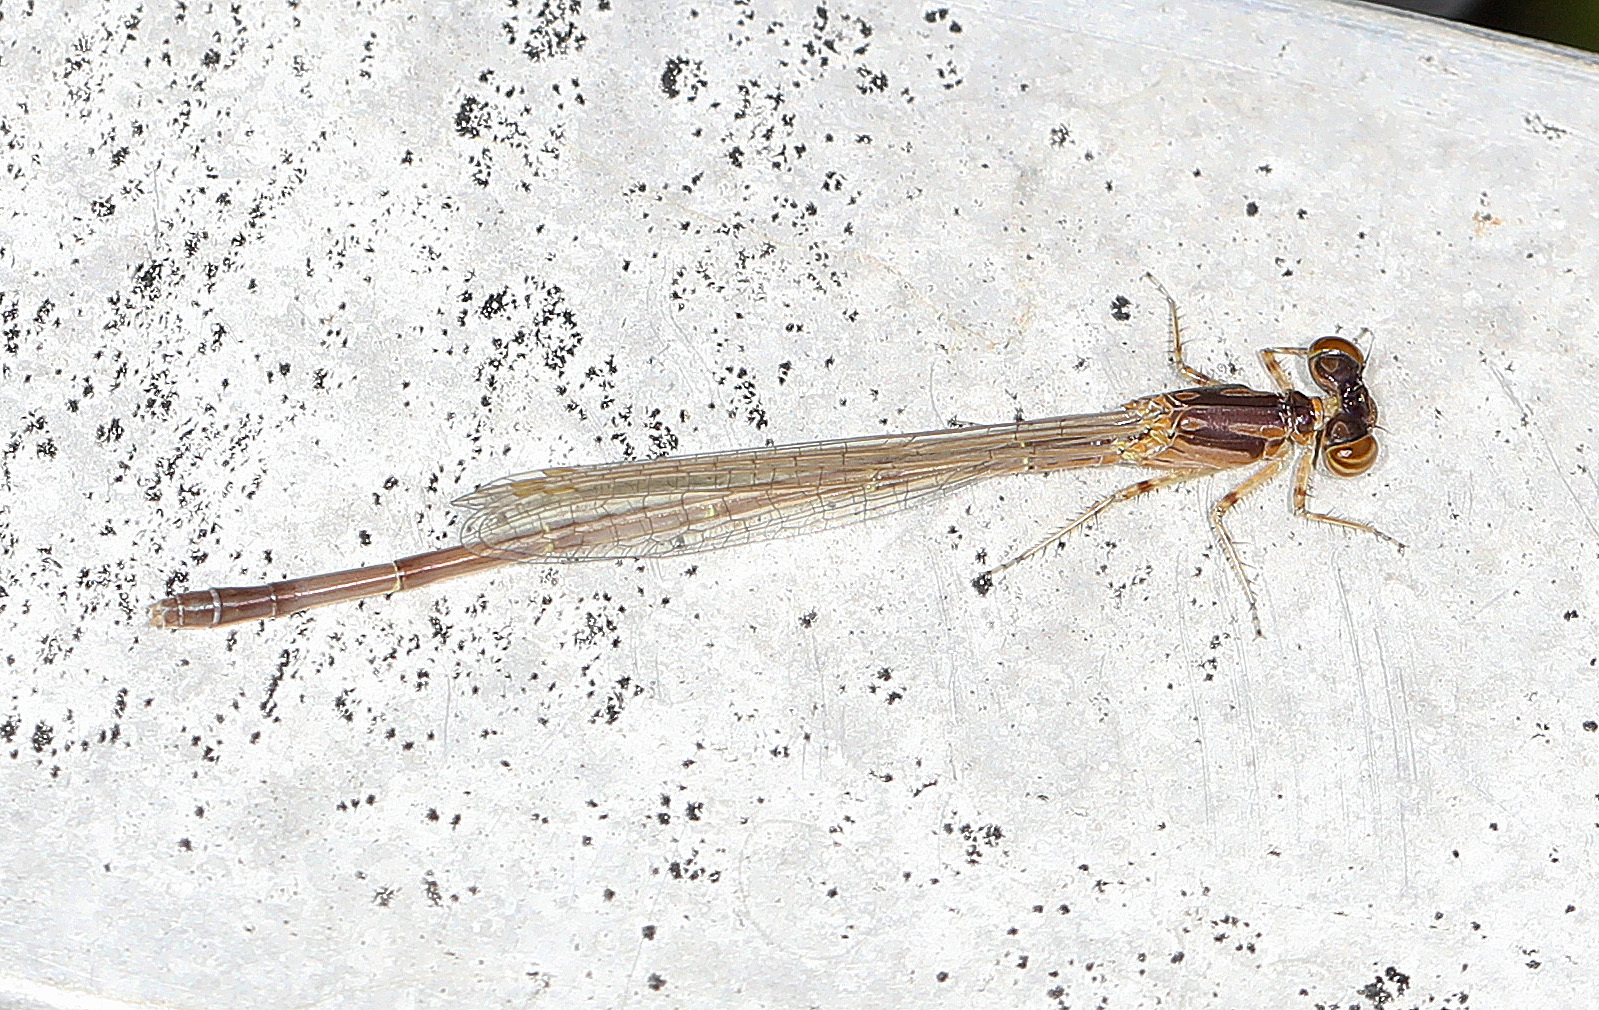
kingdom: Animalia
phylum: Arthropoda
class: Insecta
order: Odonata
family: Coenagrionidae
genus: Ischnura
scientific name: Ischnura posita
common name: Fragile forktail
